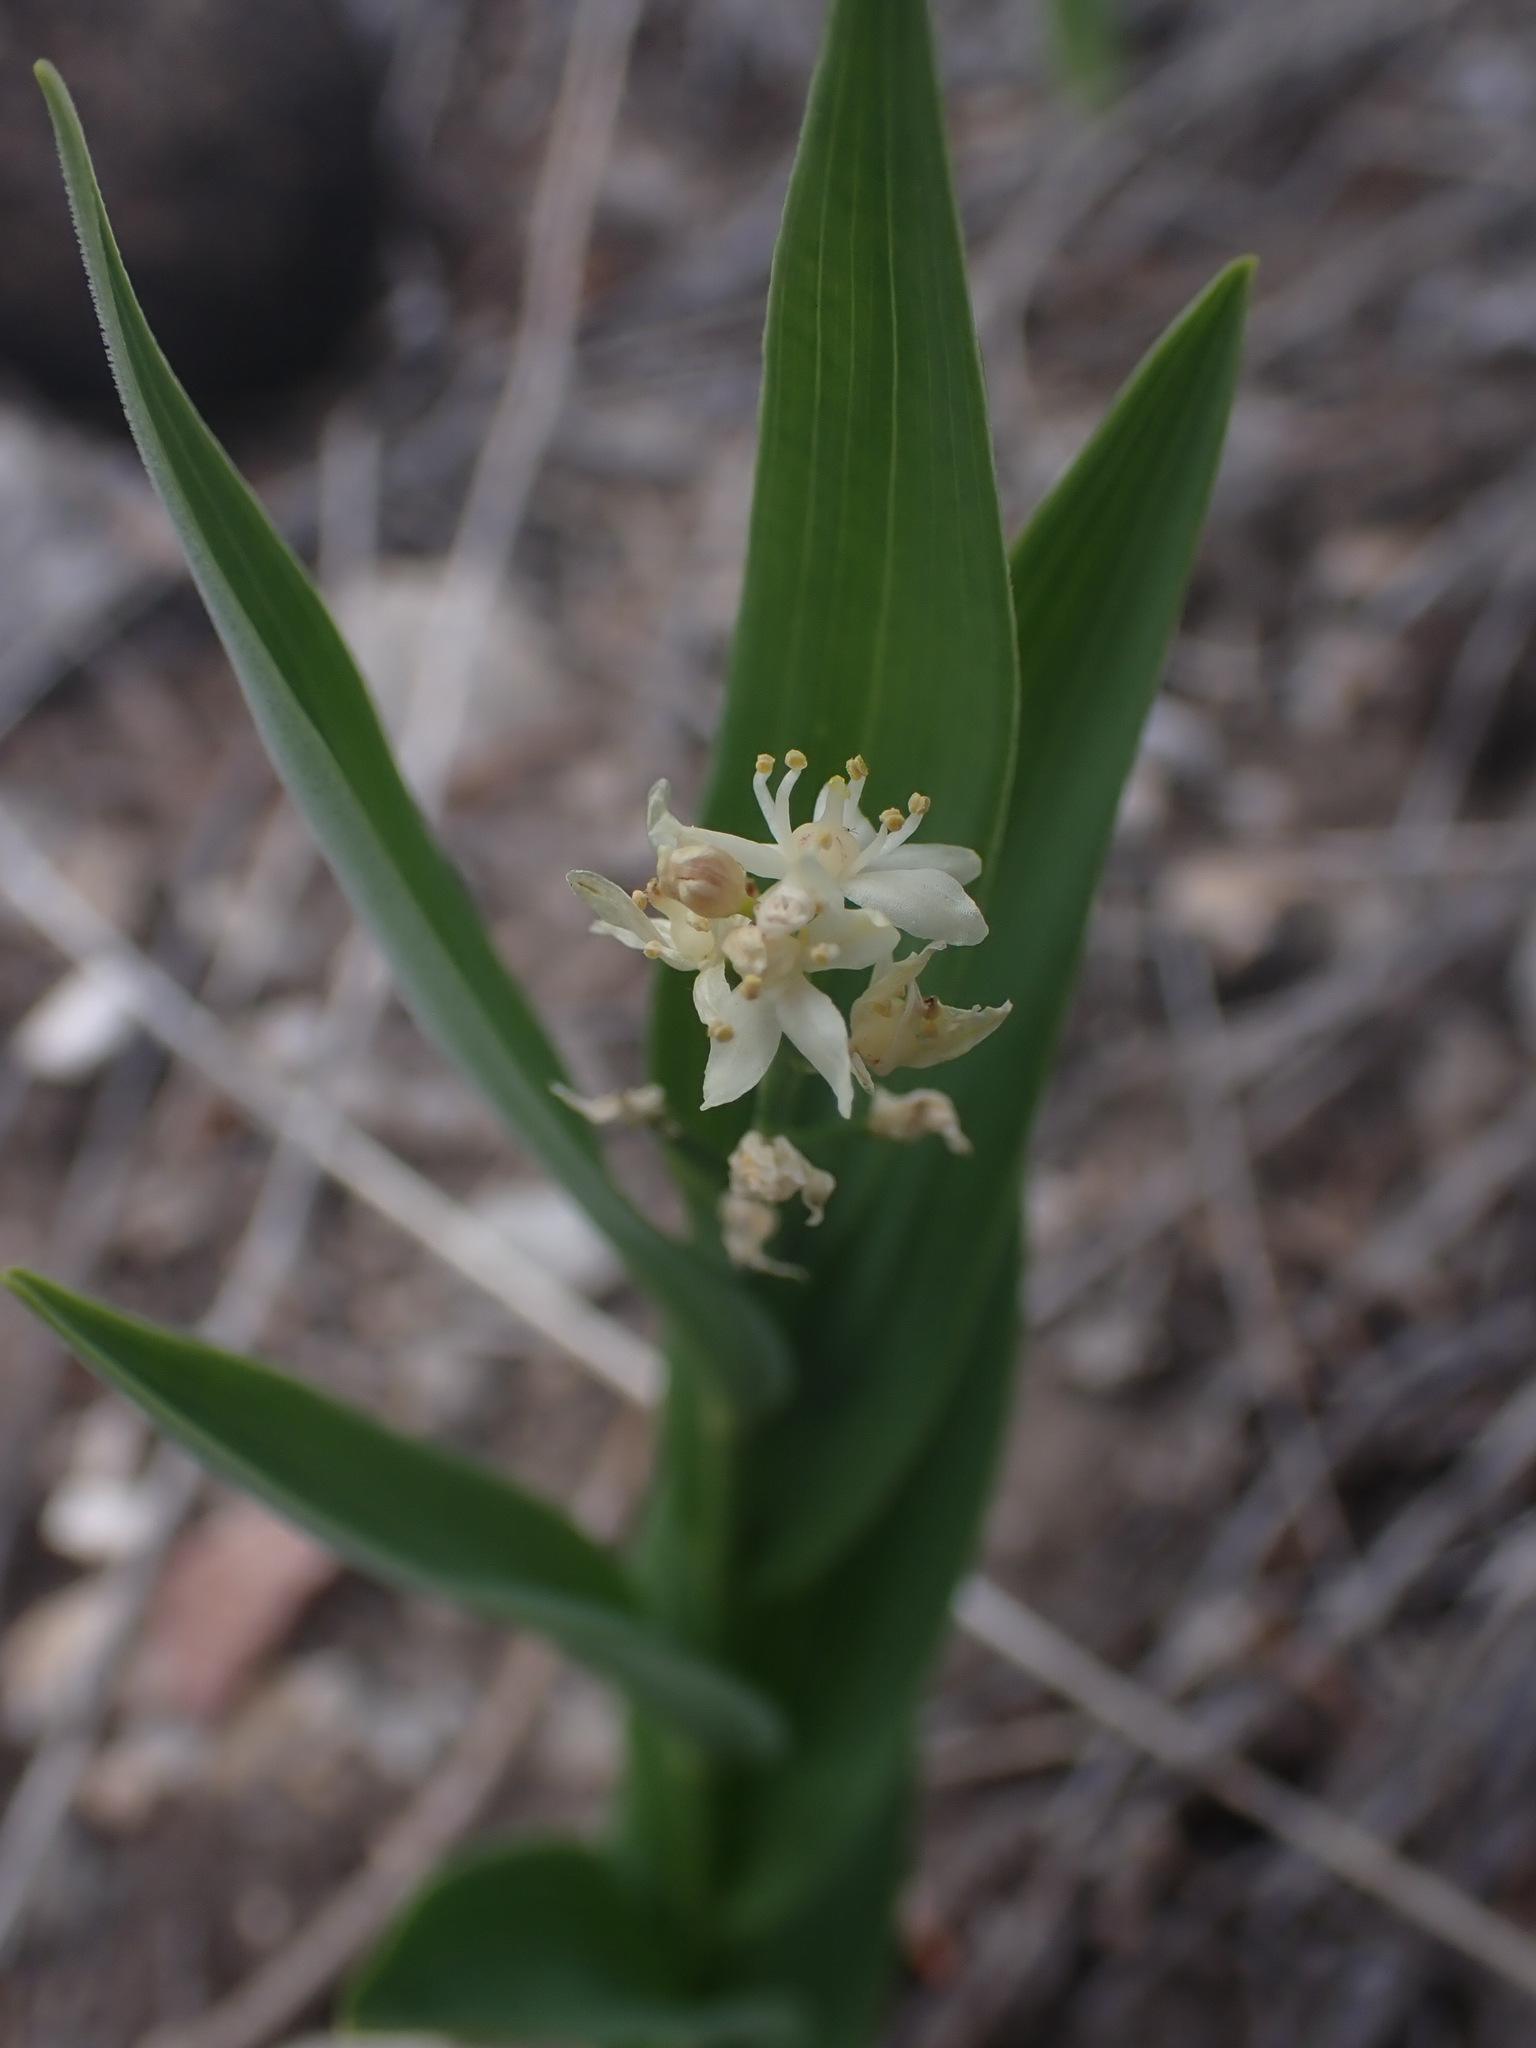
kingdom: Plantae
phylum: Tracheophyta
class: Liliopsida
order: Asparagales
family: Asparagaceae
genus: Maianthemum
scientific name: Maianthemum stellatum
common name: Little false solomon's seal
